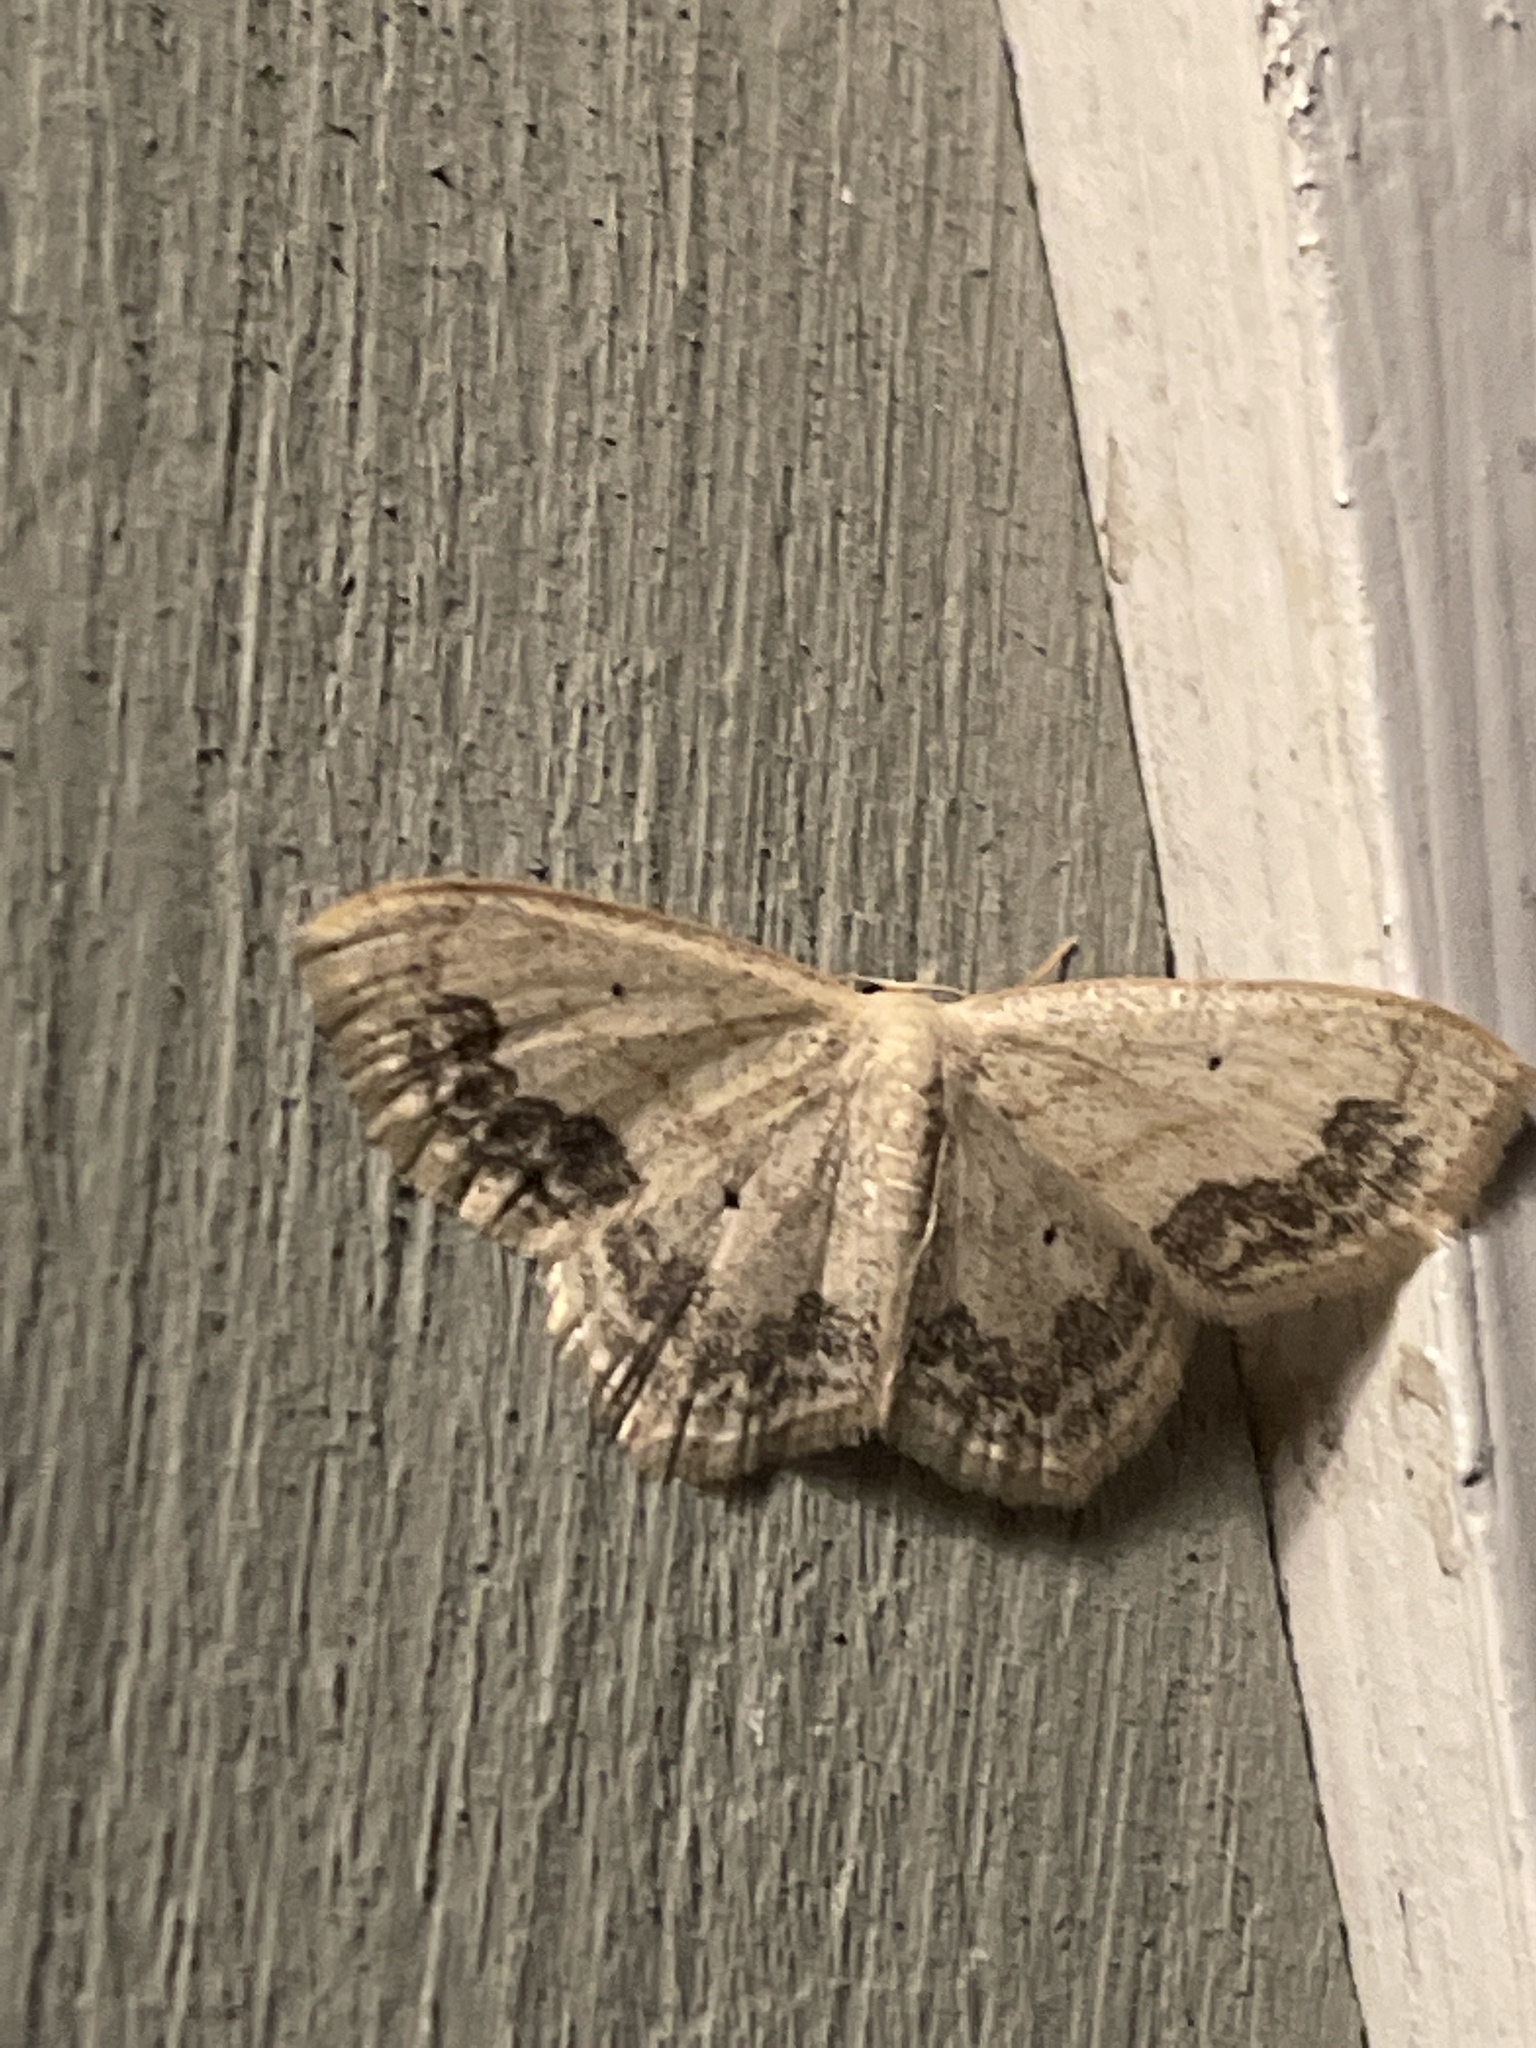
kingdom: Animalia
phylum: Arthropoda
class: Insecta
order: Lepidoptera
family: Geometridae
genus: Scopula
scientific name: Scopula limboundata
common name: Large lace border
